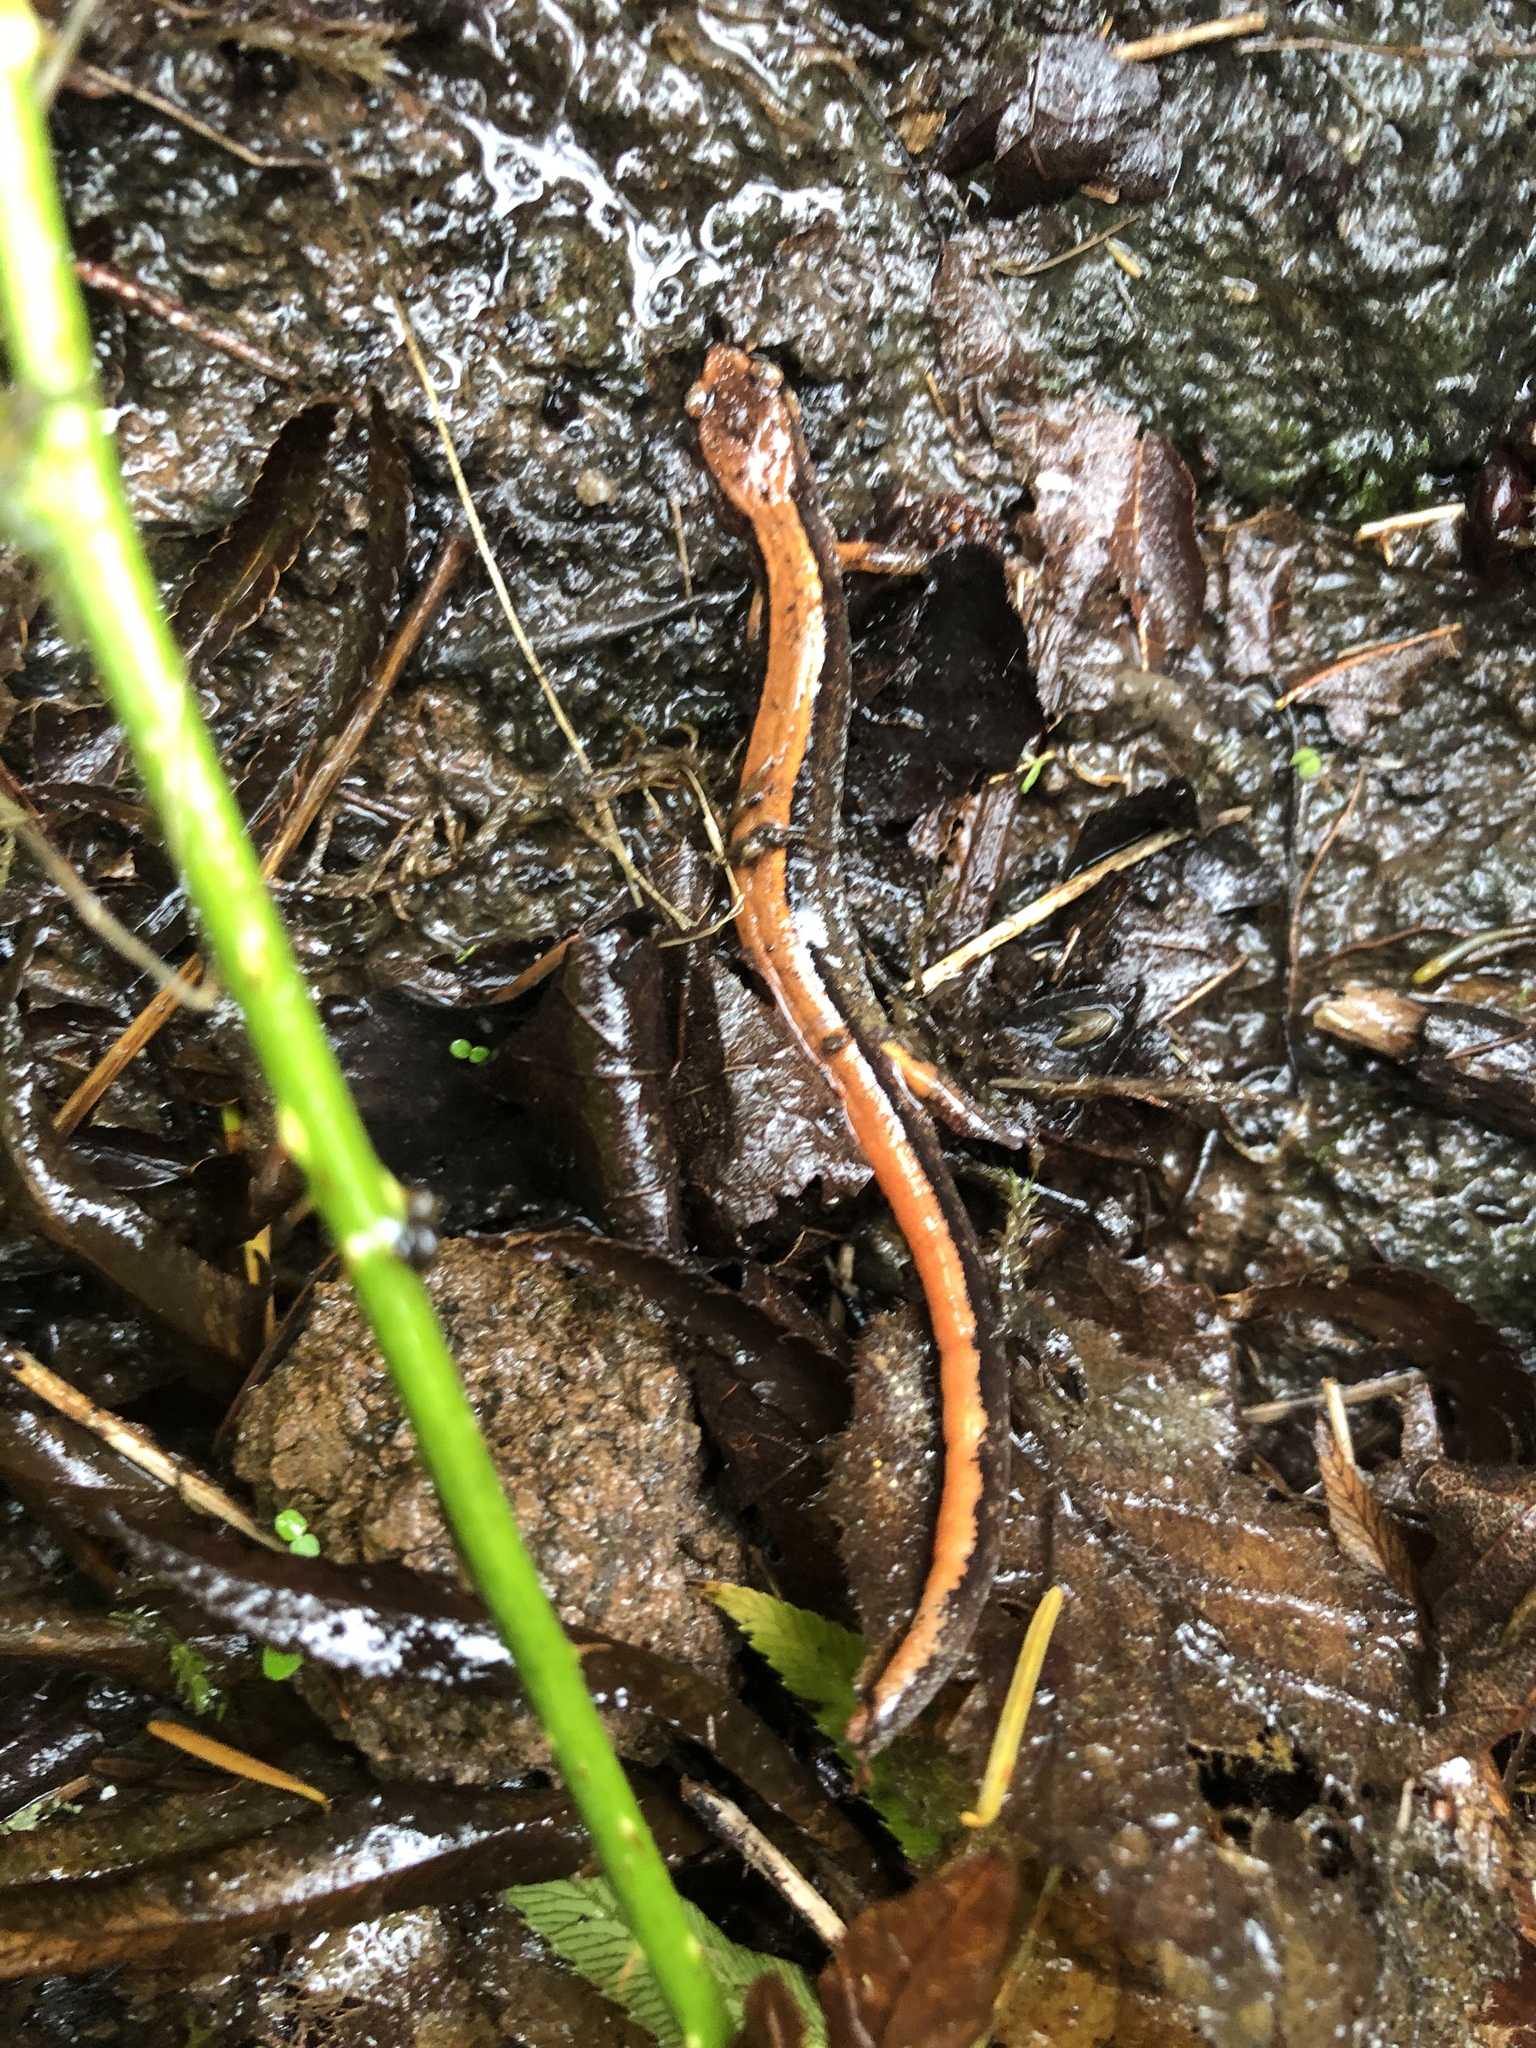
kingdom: Animalia
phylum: Chordata
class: Amphibia
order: Caudata
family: Plethodontidae
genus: Plethodon
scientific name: Plethodon vehiculum
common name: Western red-backed salamander
